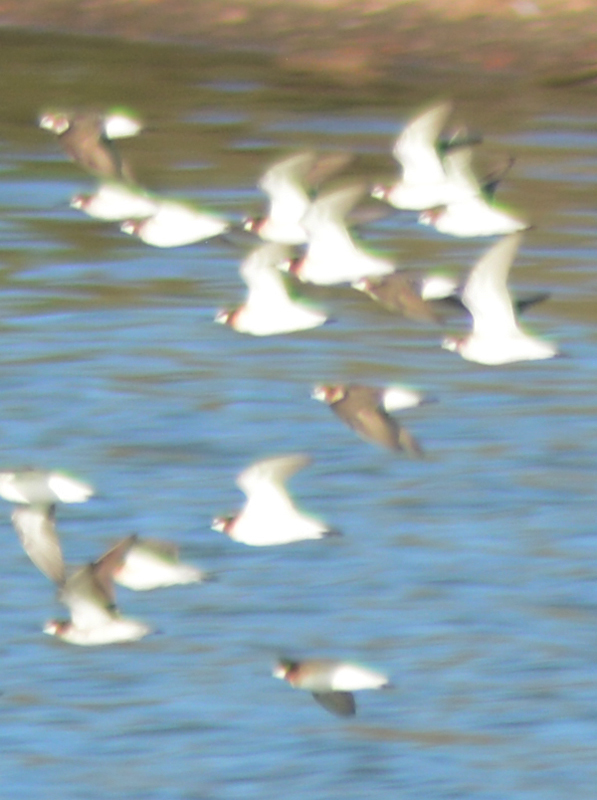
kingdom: Animalia
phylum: Chordata
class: Aves
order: Charadriiformes
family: Scolopacidae
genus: Phalaropus
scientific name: Phalaropus tricolor
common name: Wilson's phalarope
